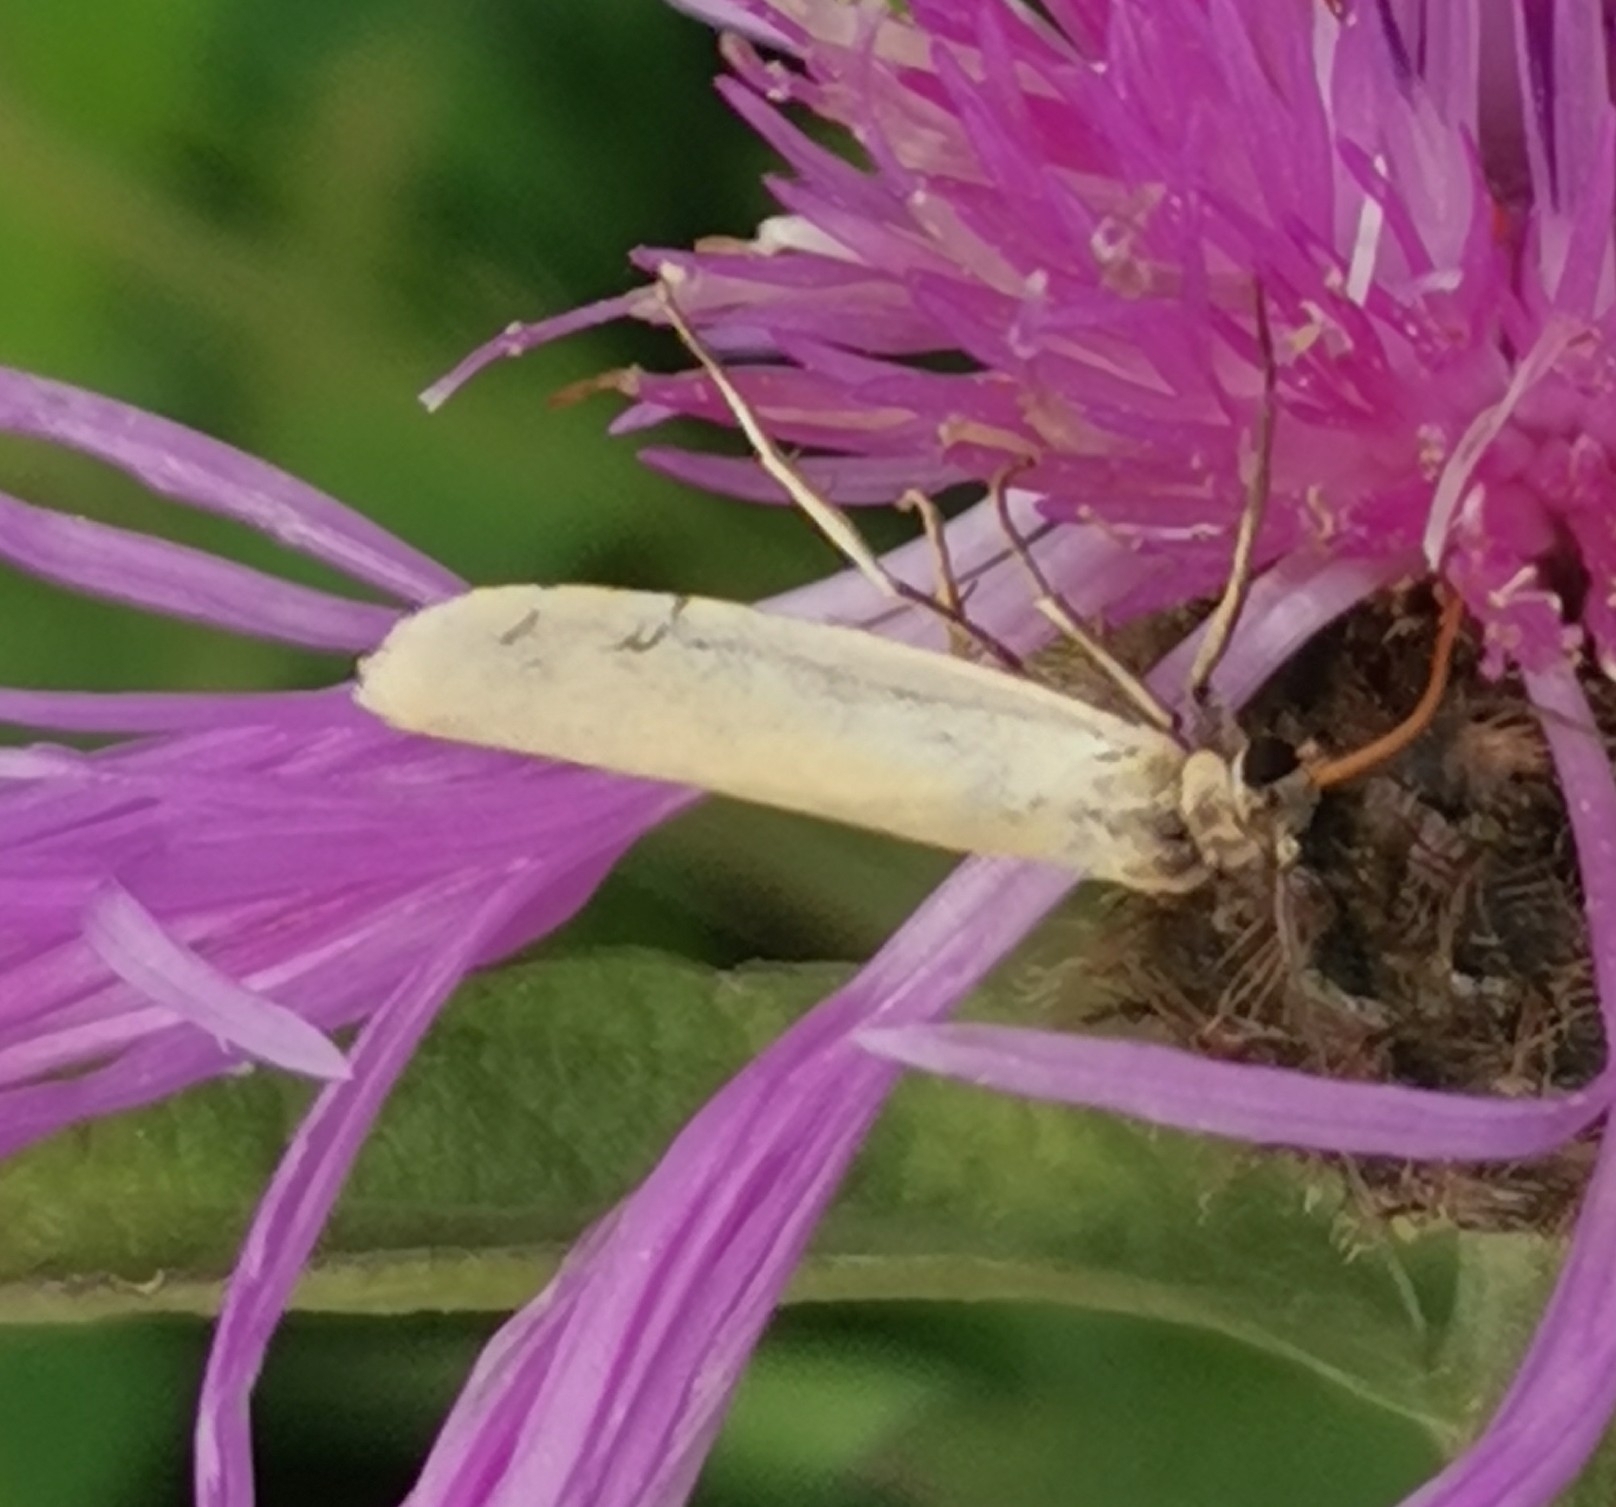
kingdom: Animalia
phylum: Arthropoda
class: Insecta
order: Lepidoptera
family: Erebidae
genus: Indalia
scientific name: Indalia lutarella
